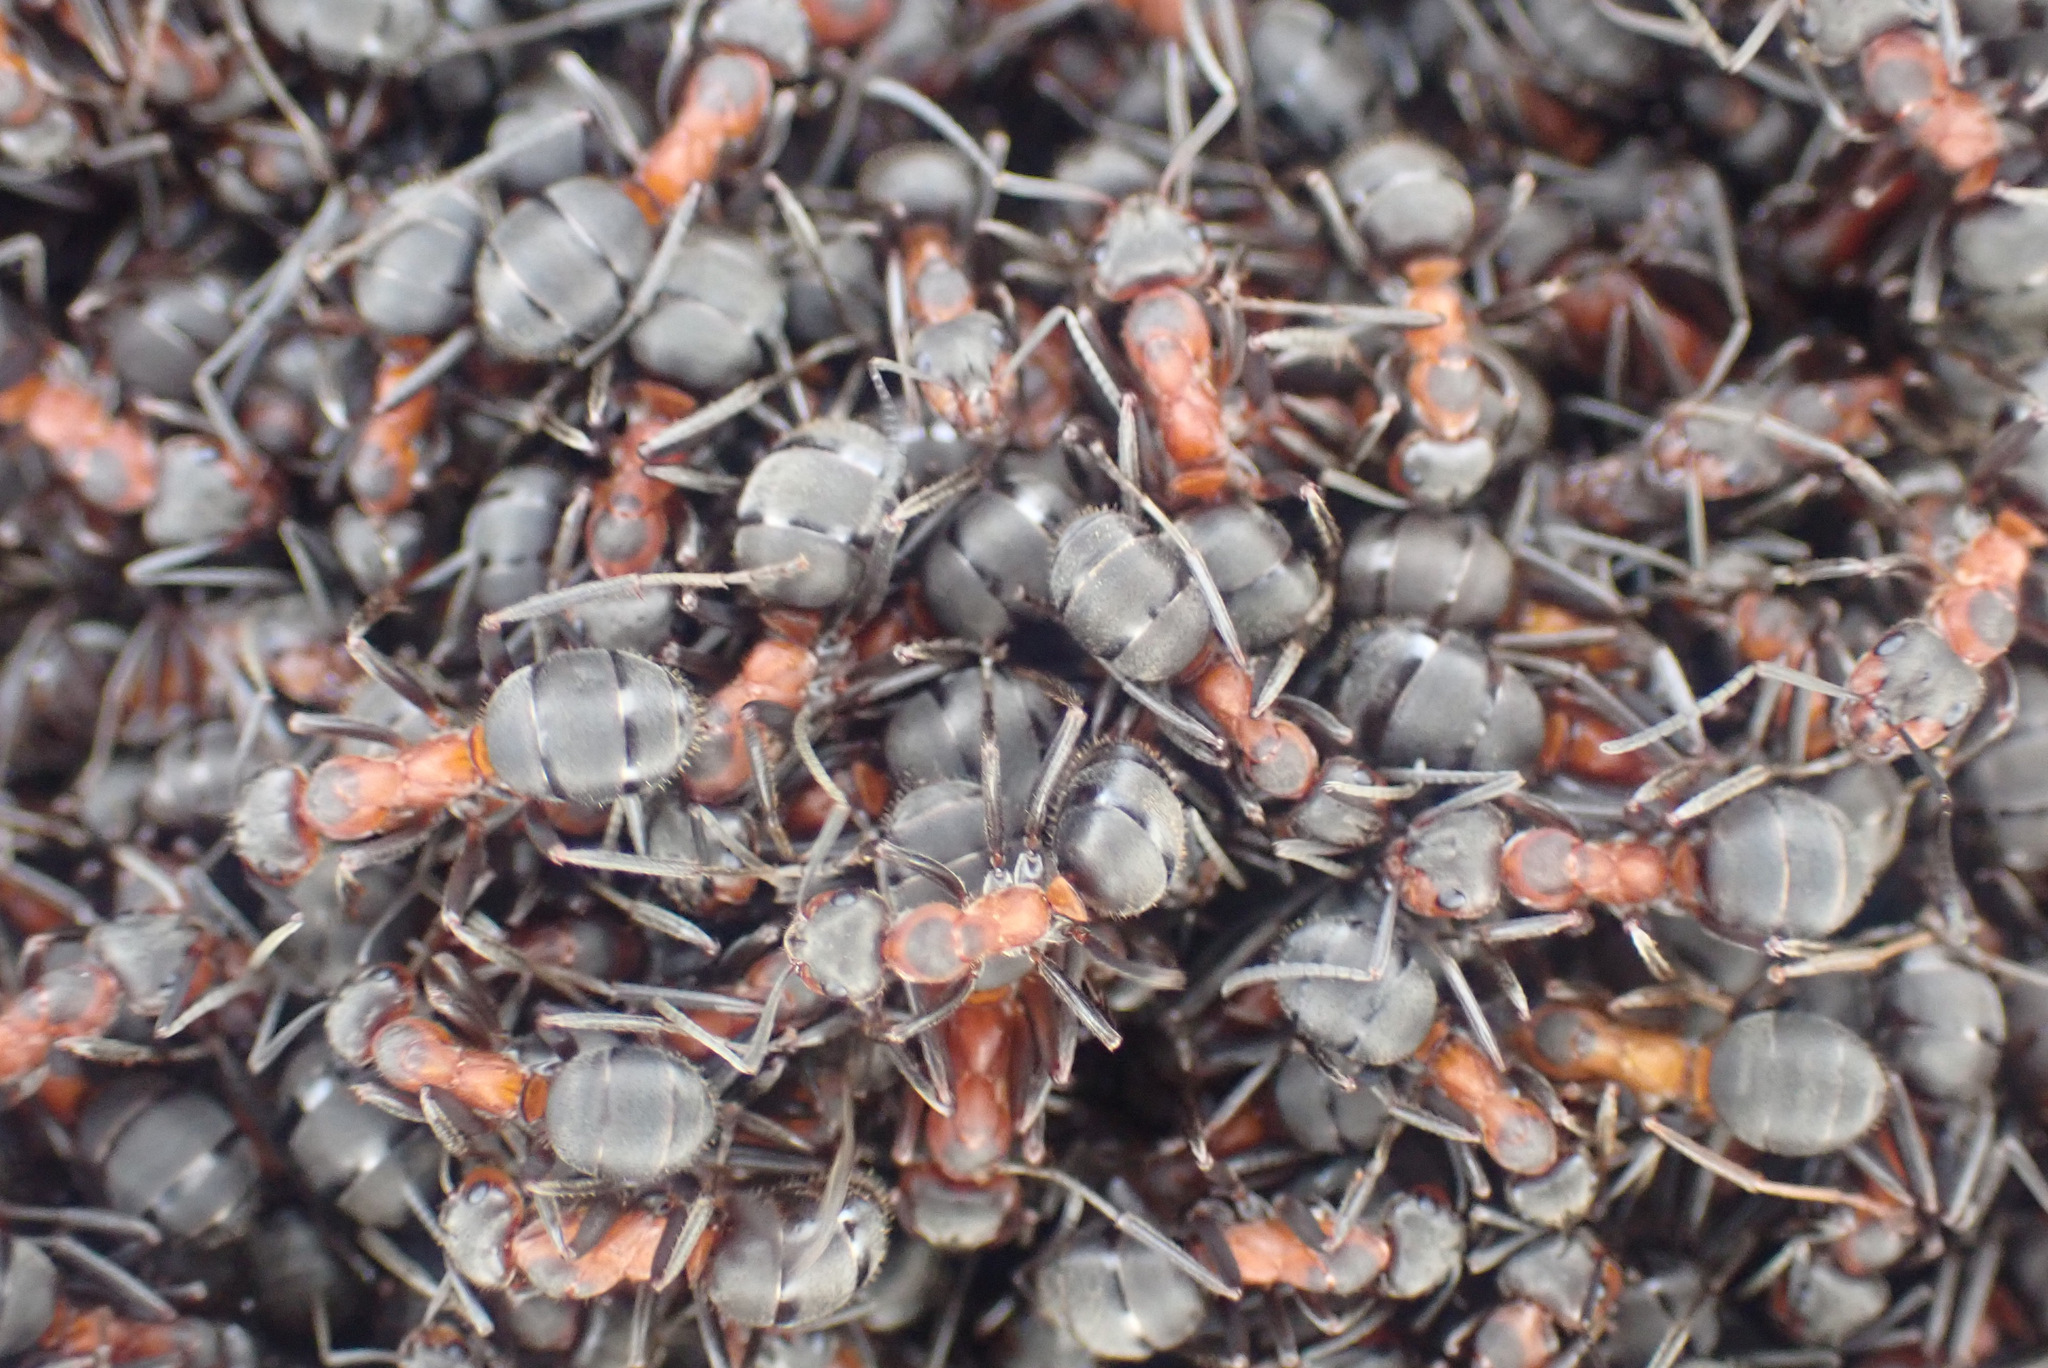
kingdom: Animalia
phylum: Arthropoda
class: Insecta
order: Hymenoptera
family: Formicidae
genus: Formica
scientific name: Formica pratensis
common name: European red wood ant
